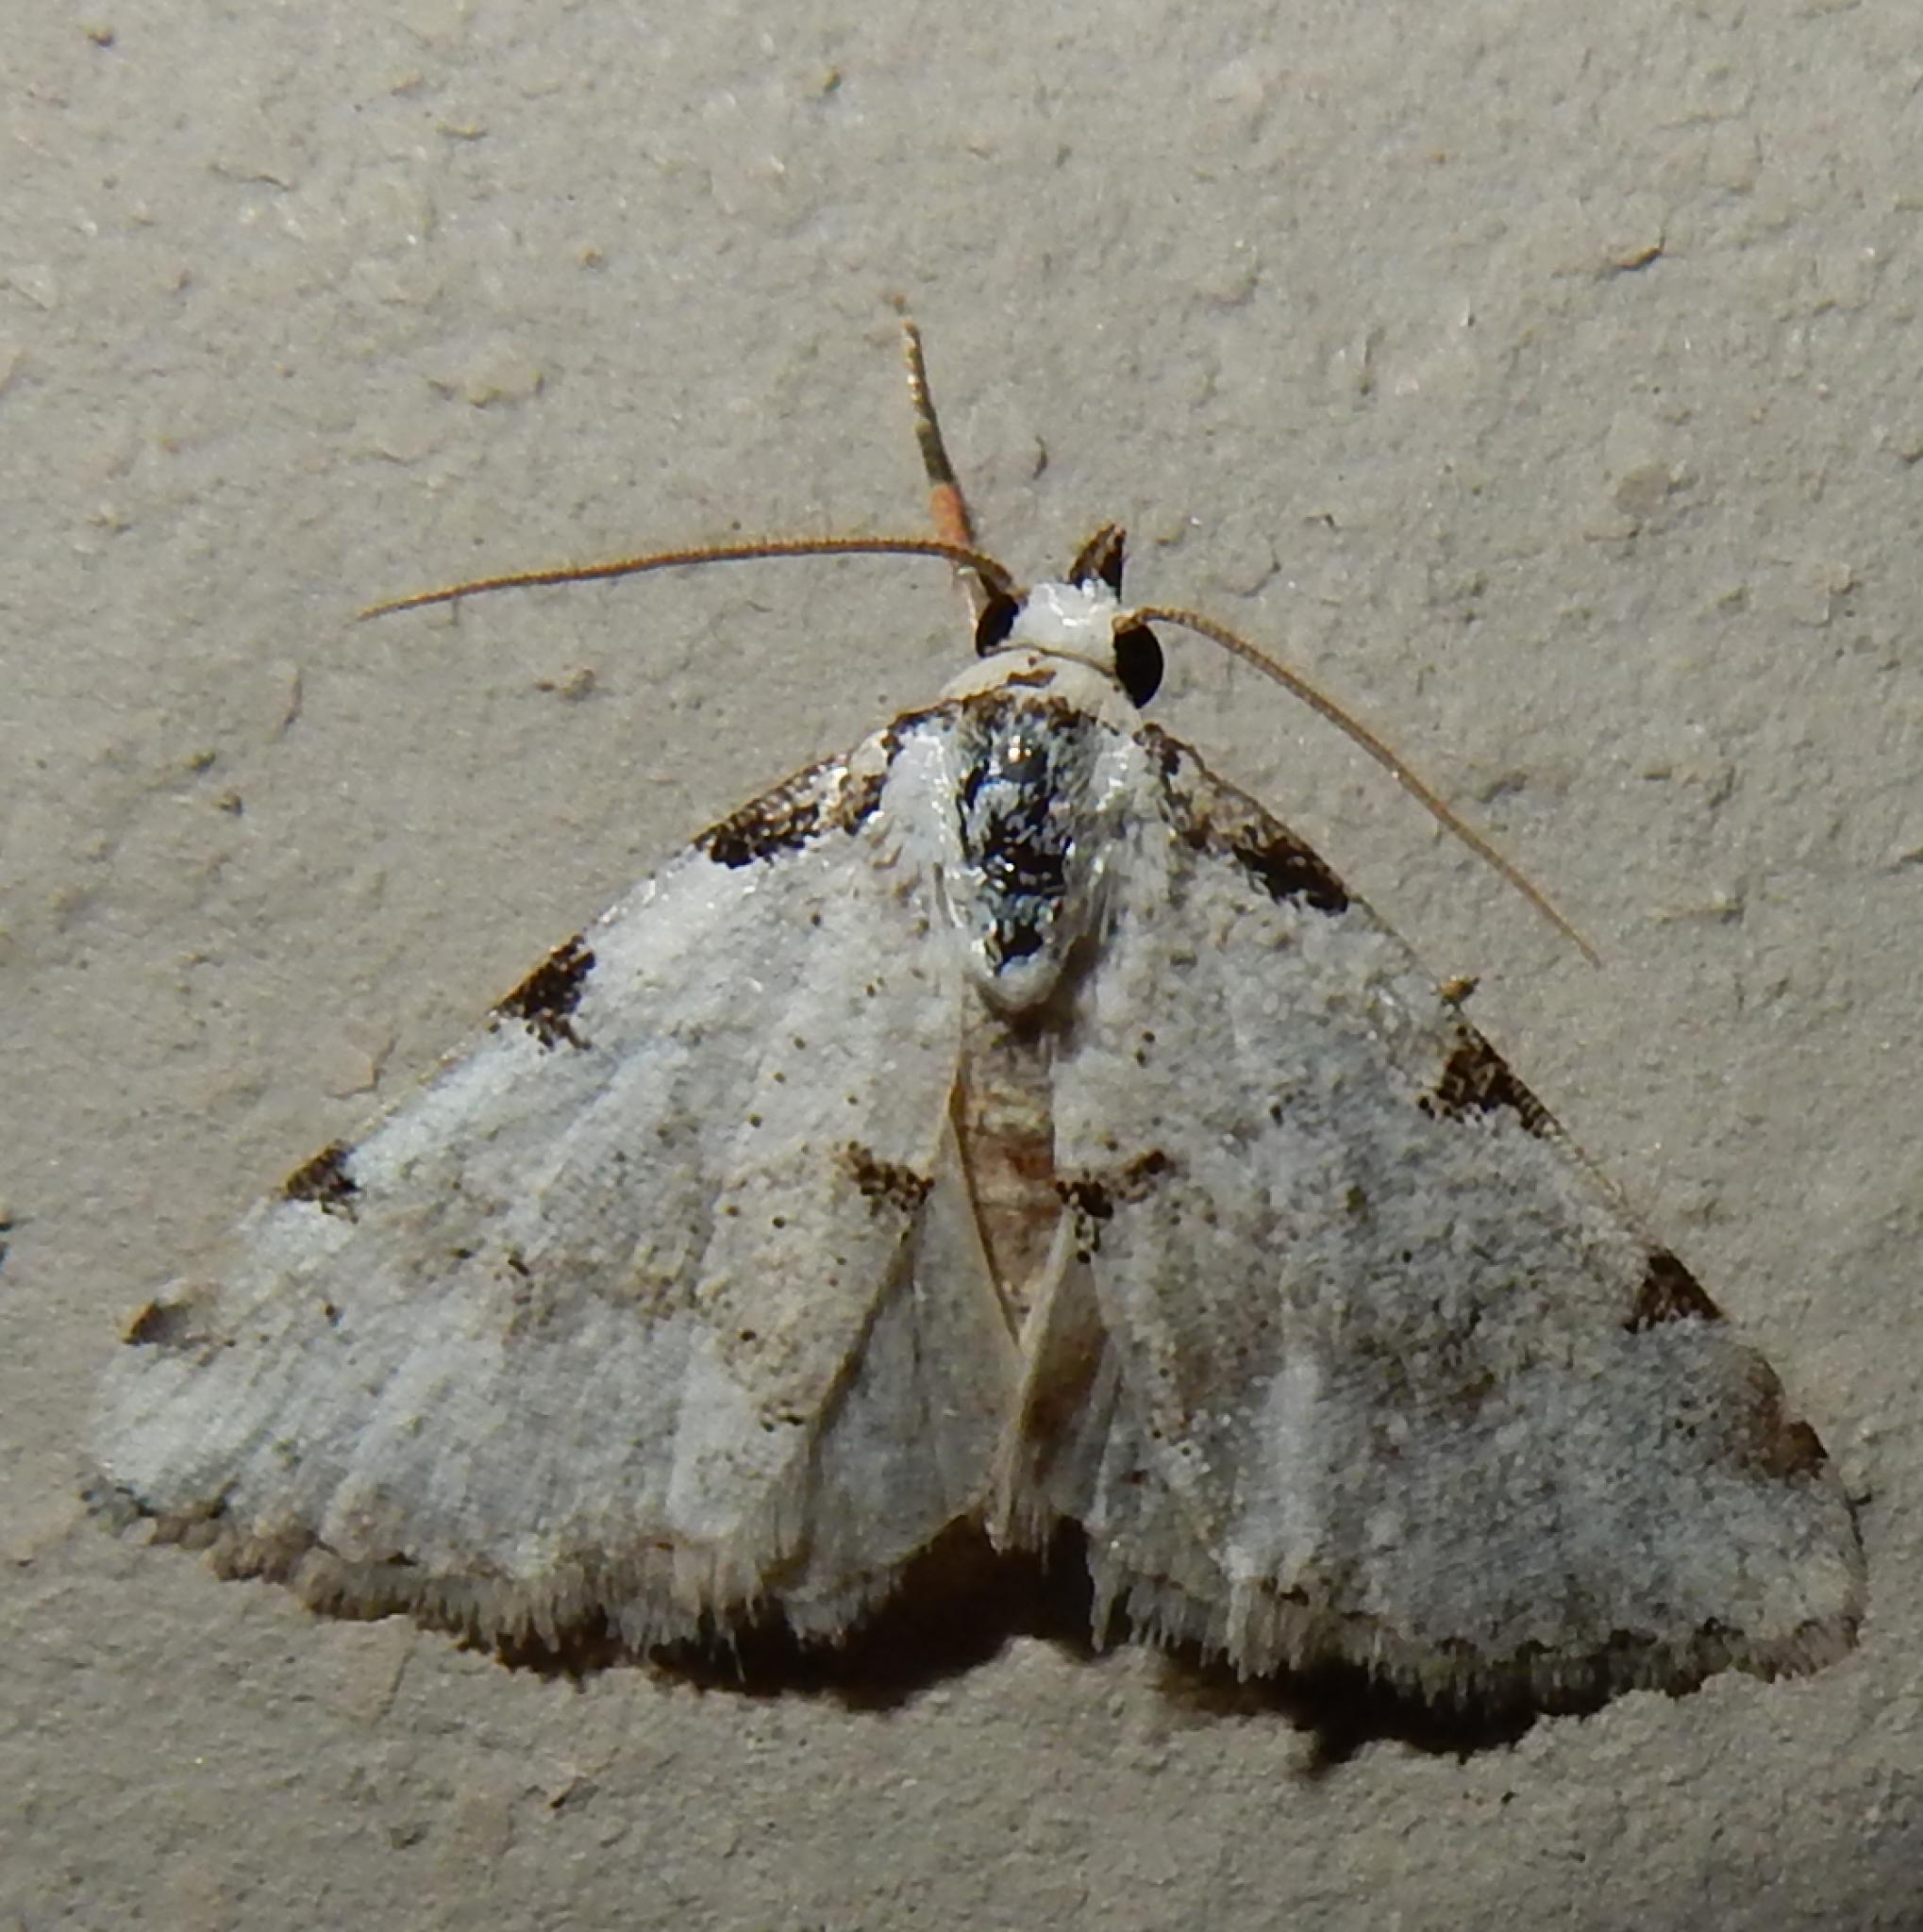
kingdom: Animalia
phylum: Arthropoda
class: Insecta
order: Lepidoptera
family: Noctuidae
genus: Tegiapa
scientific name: Tegiapa goateri
